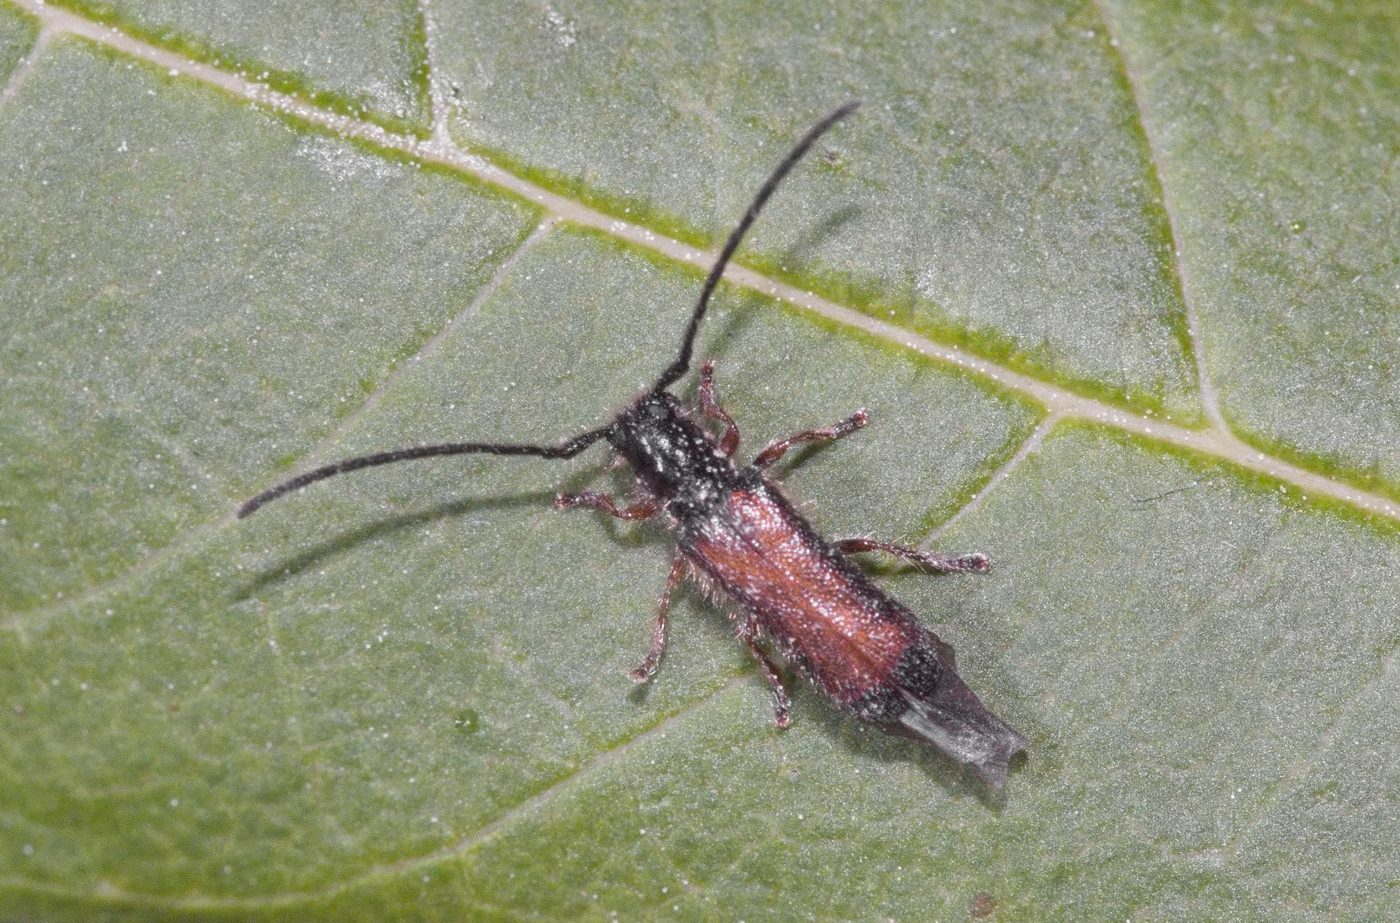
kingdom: Animalia
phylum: Arthropoda
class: Insecta
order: Coleoptera
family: Cerambycidae
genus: Tetrops
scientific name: Tetrops starkii
